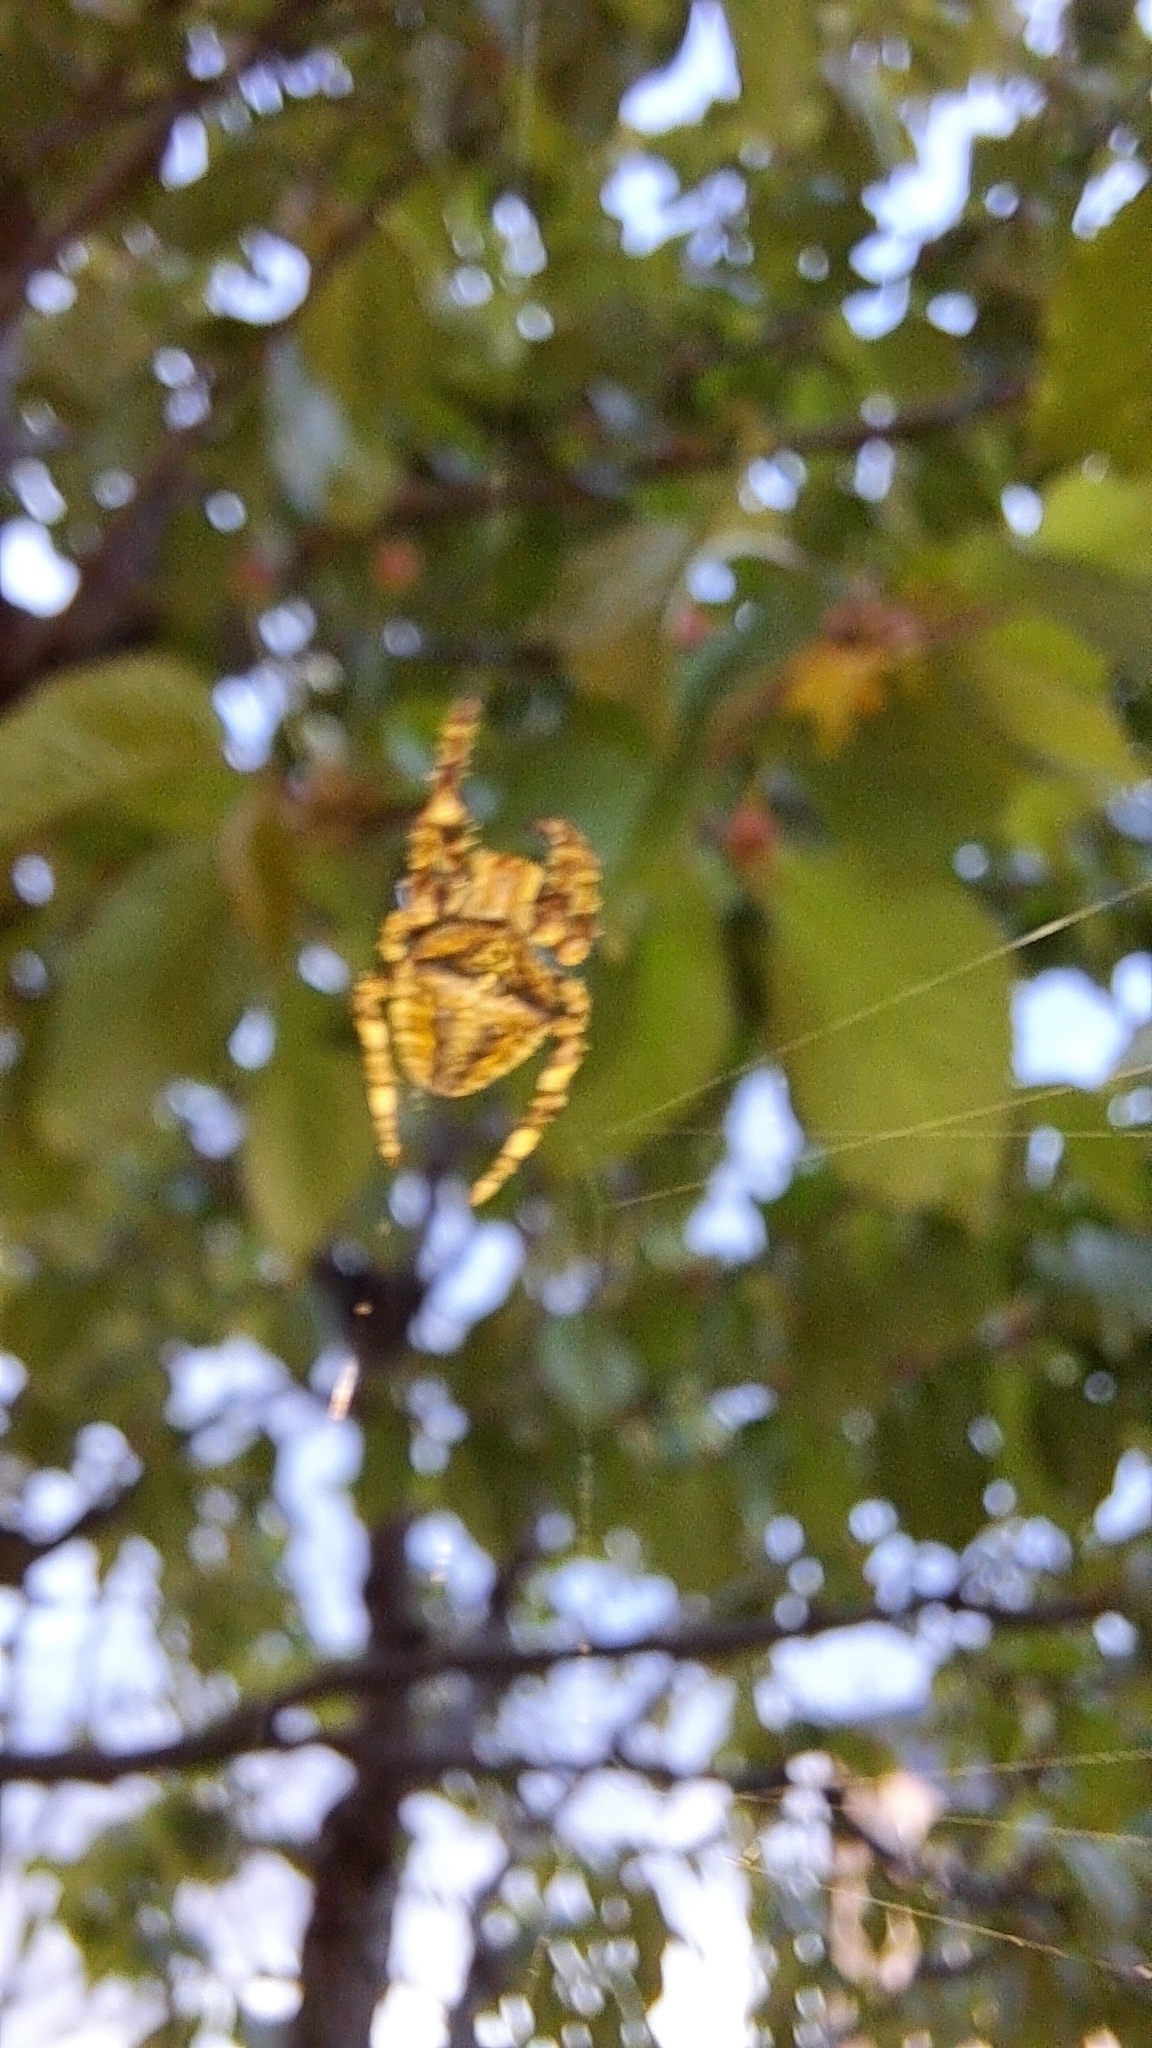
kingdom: Animalia
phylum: Arthropoda
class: Arachnida
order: Araneae
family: Araneidae
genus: Araneus
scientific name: Araneus angulatus
